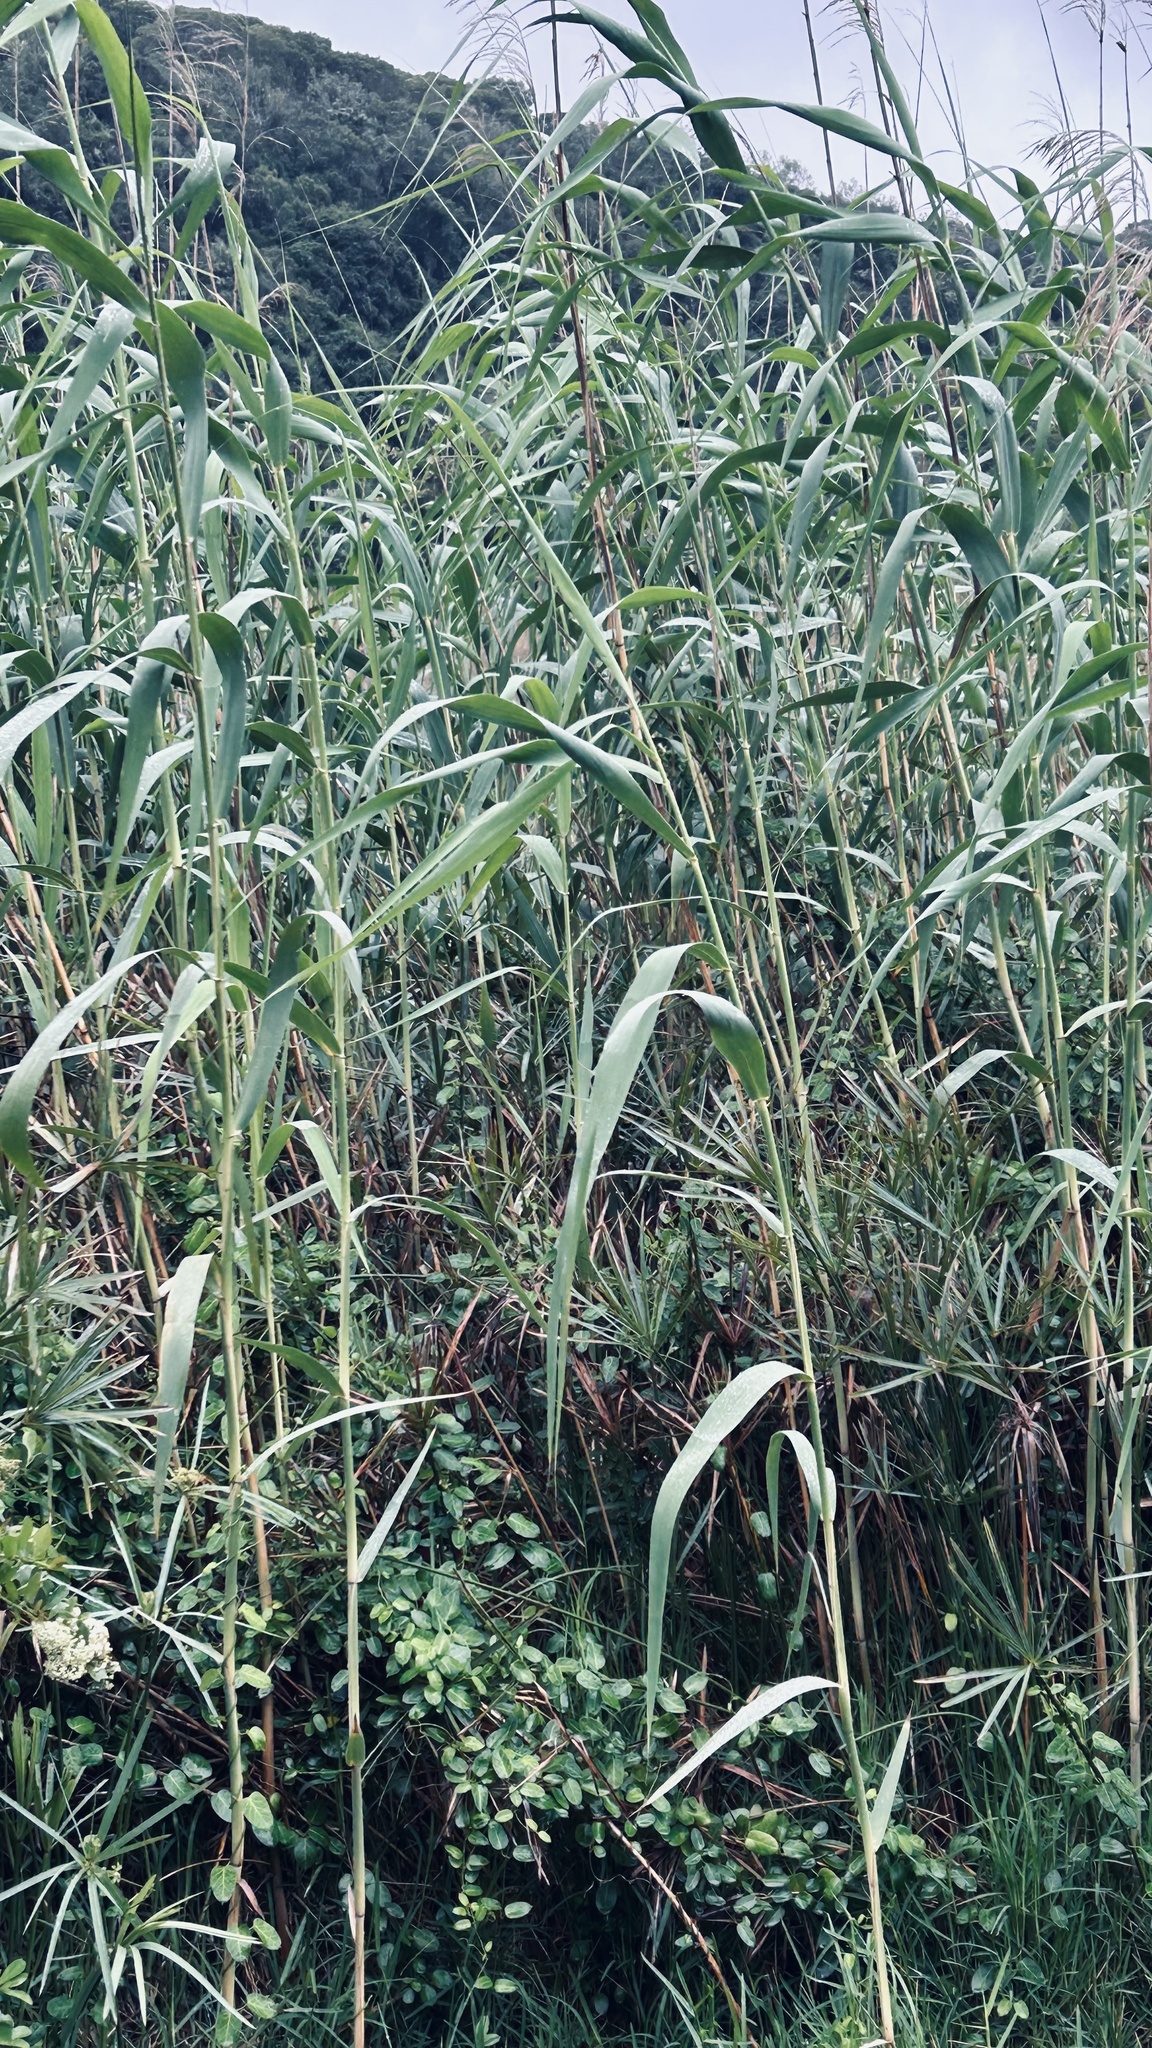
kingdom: Plantae
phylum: Tracheophyta
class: Liliopsida
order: Poales
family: Poaceae
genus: Phragmites
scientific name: Phragmites australis
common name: Common reed
